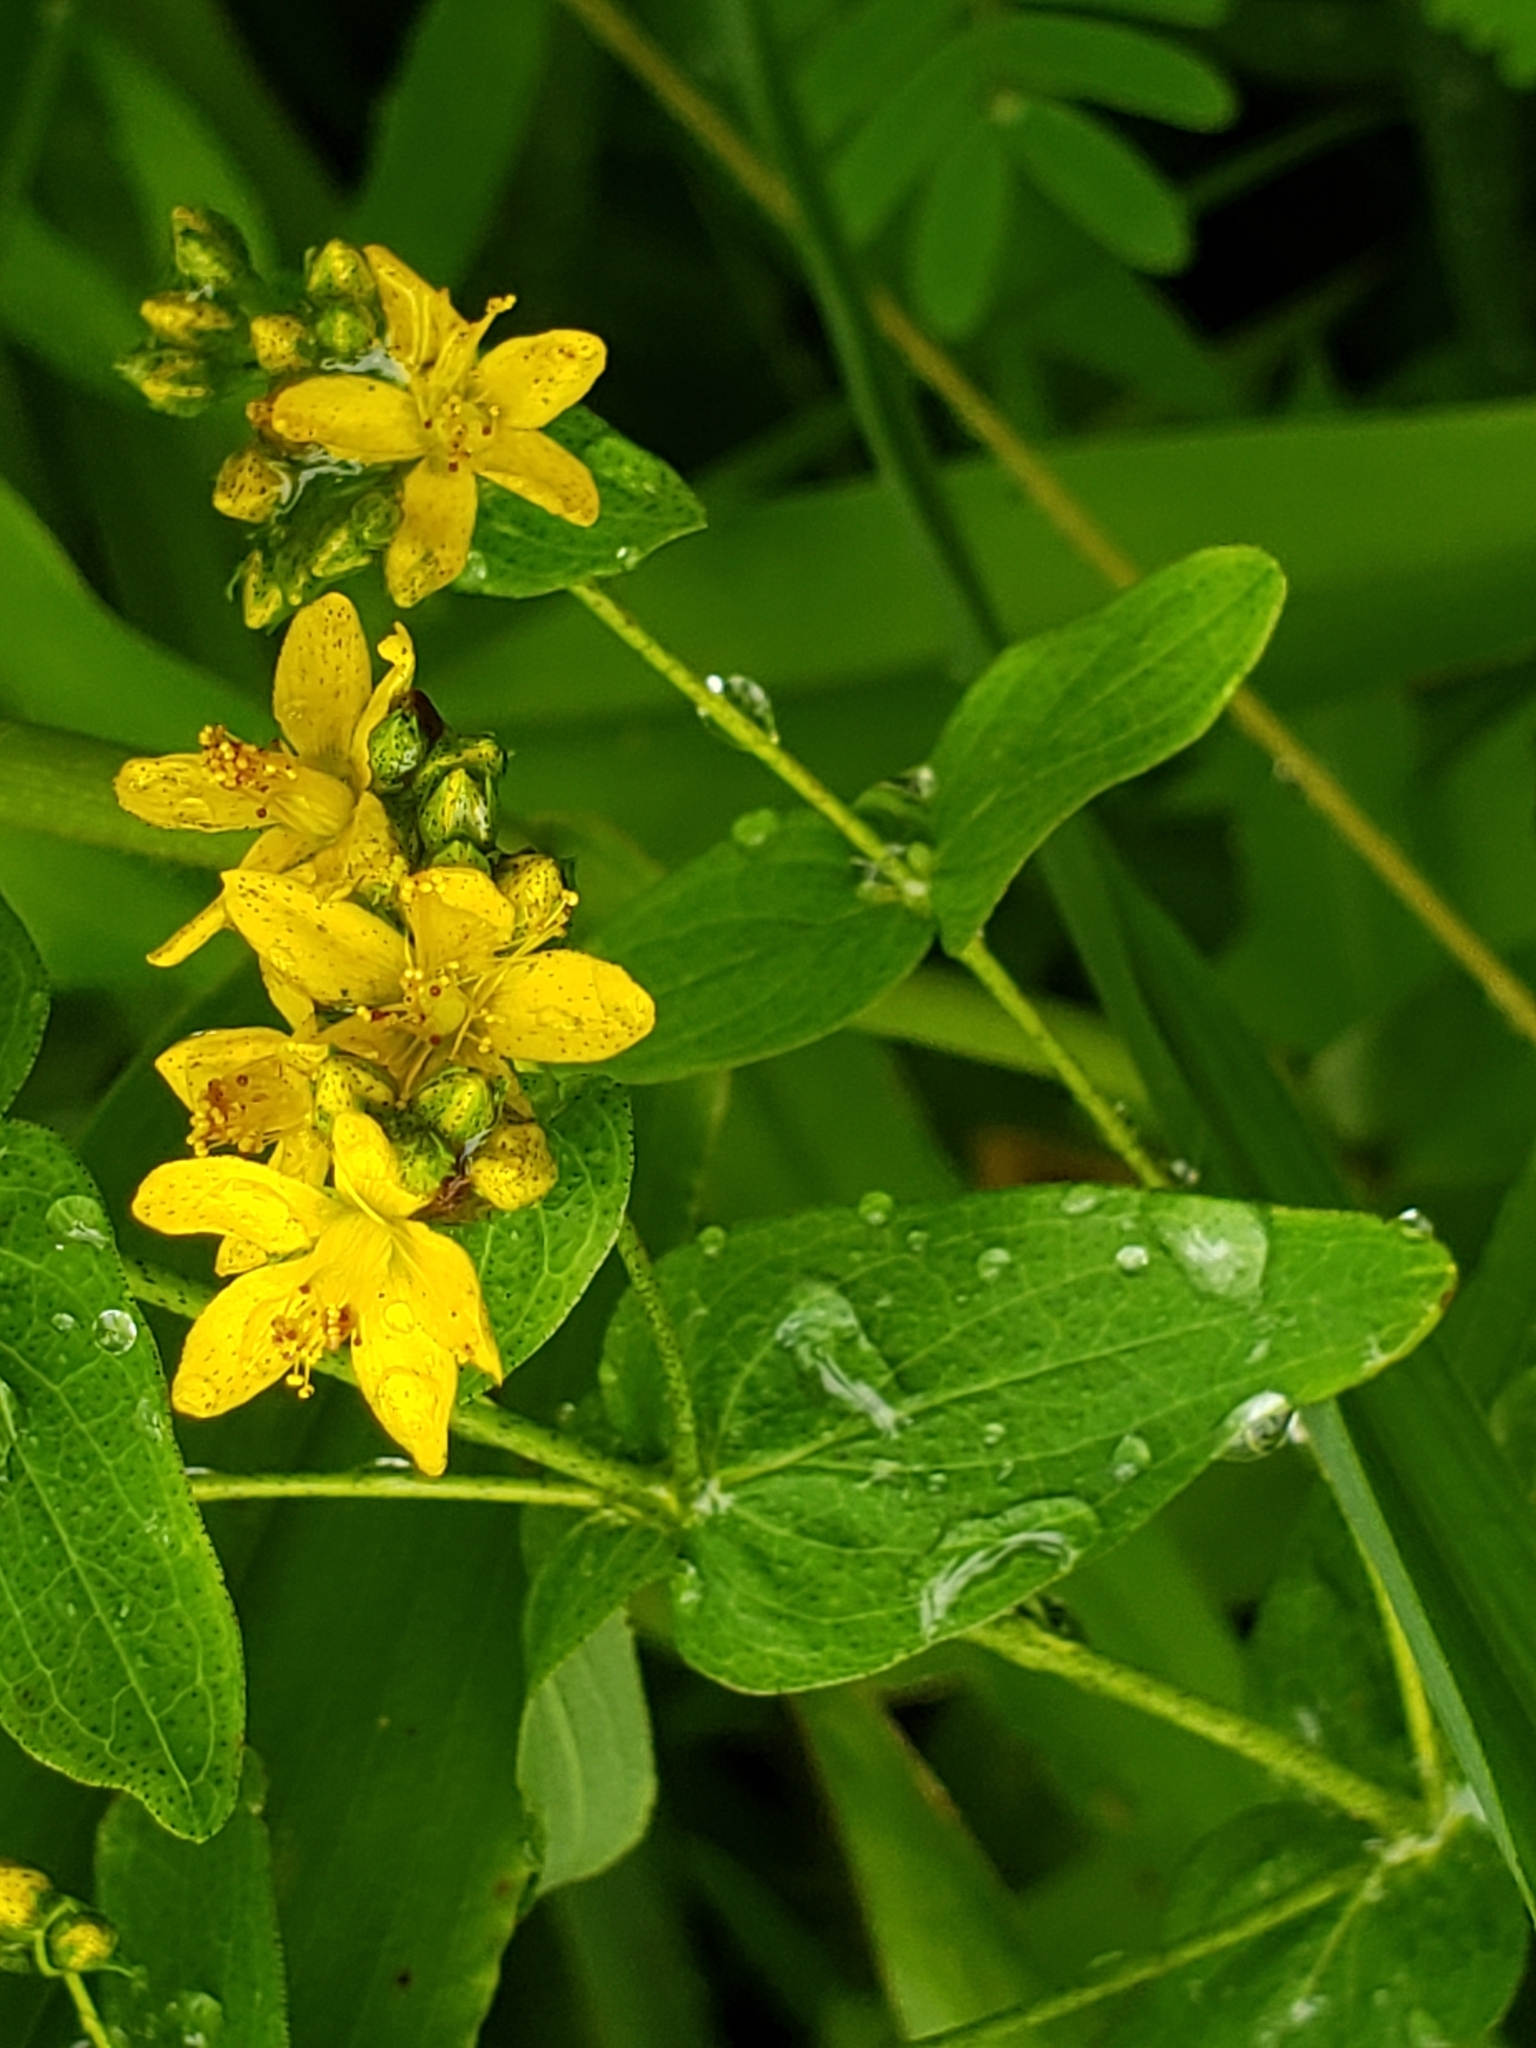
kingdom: Plantae
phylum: Tracheophyta
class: Magnoliopsida
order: Malpighiales
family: Hypericaceae
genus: Hypericum
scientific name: Hypericum punctatum
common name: Spotted st. john's-wort
